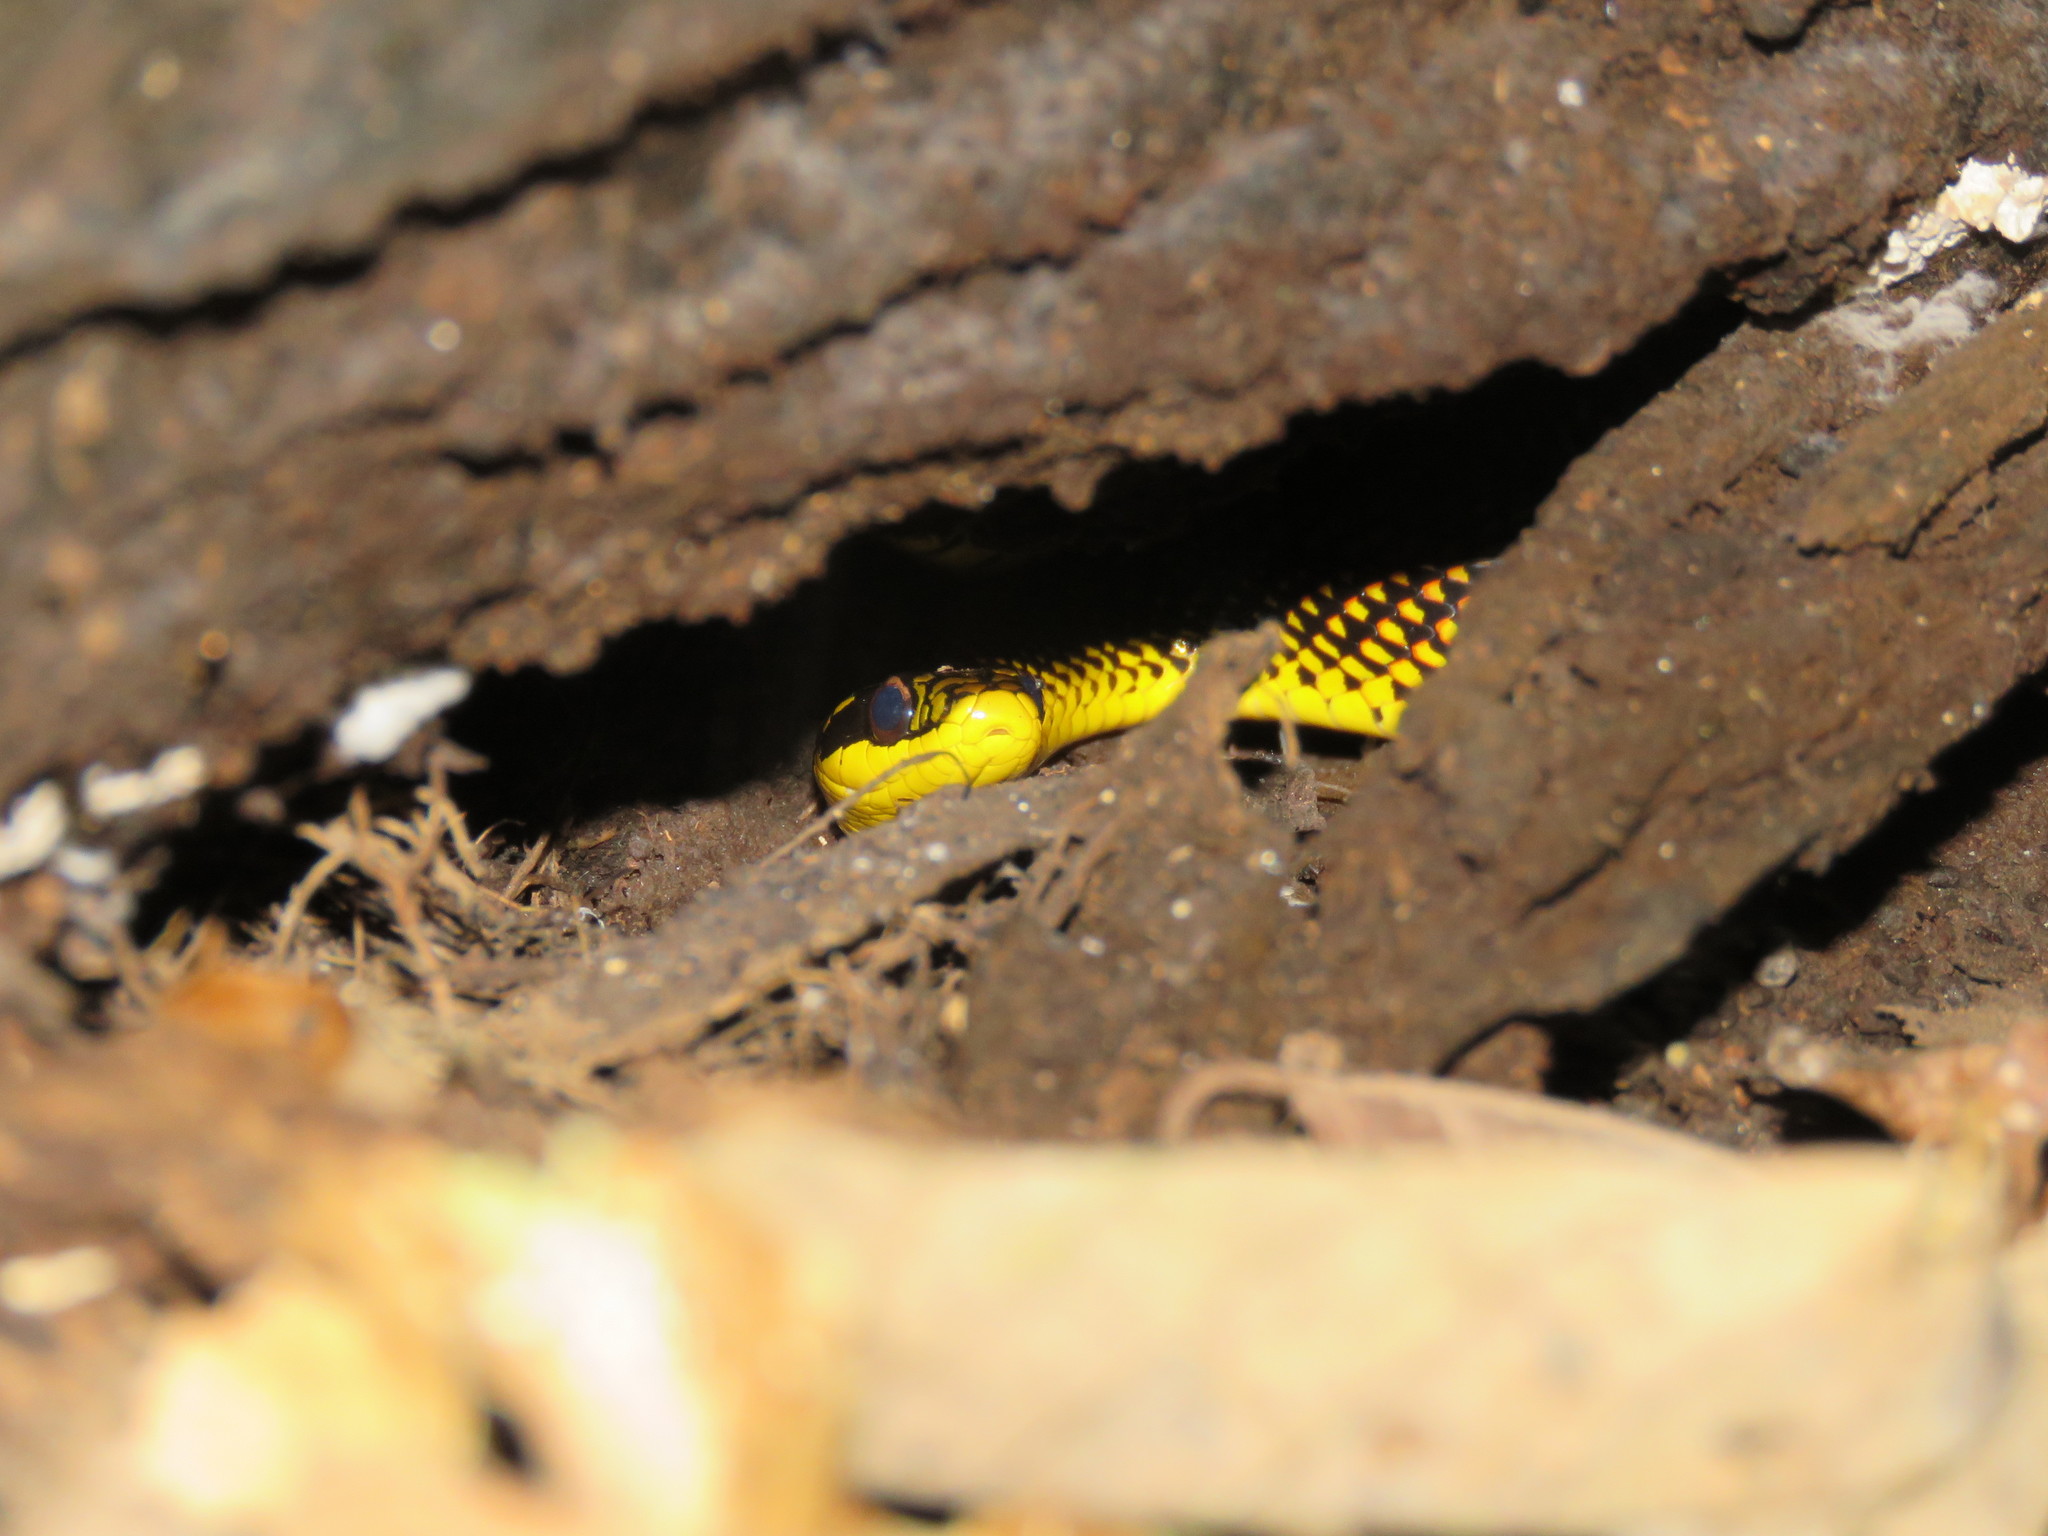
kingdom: Animalia
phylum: Chordata
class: Squamata
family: Colubridae
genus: Erythrolamprus
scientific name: Erythrolamprus dorsocorallinus
